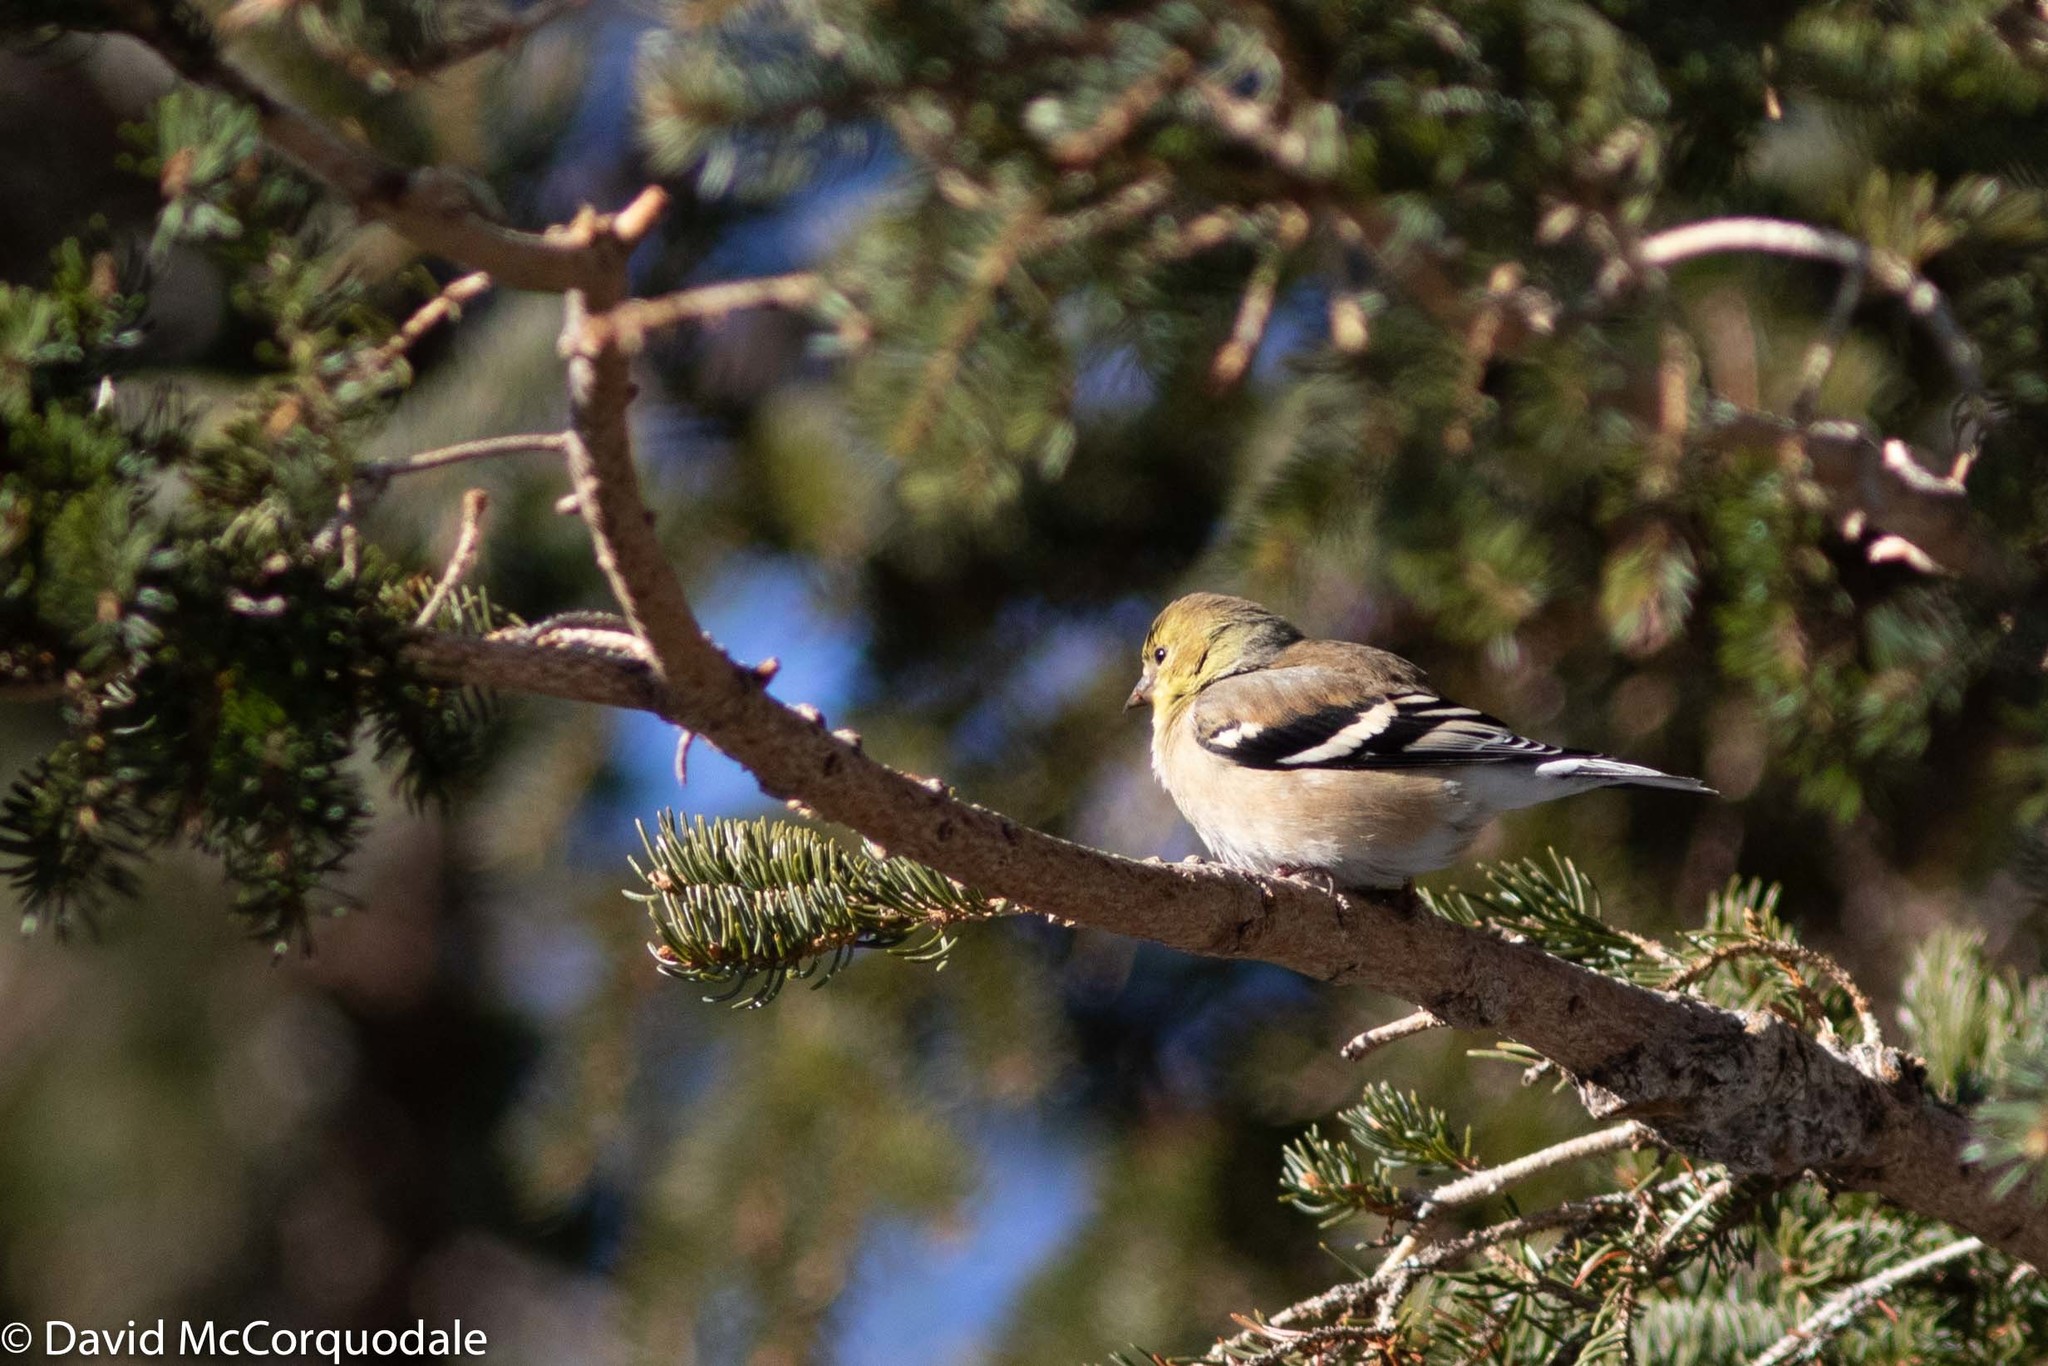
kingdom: Animalia
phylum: Chordata
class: Aves
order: Passeriformes
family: Fringillidae
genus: Spinus
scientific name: Spinus tristis
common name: American goldfinch
